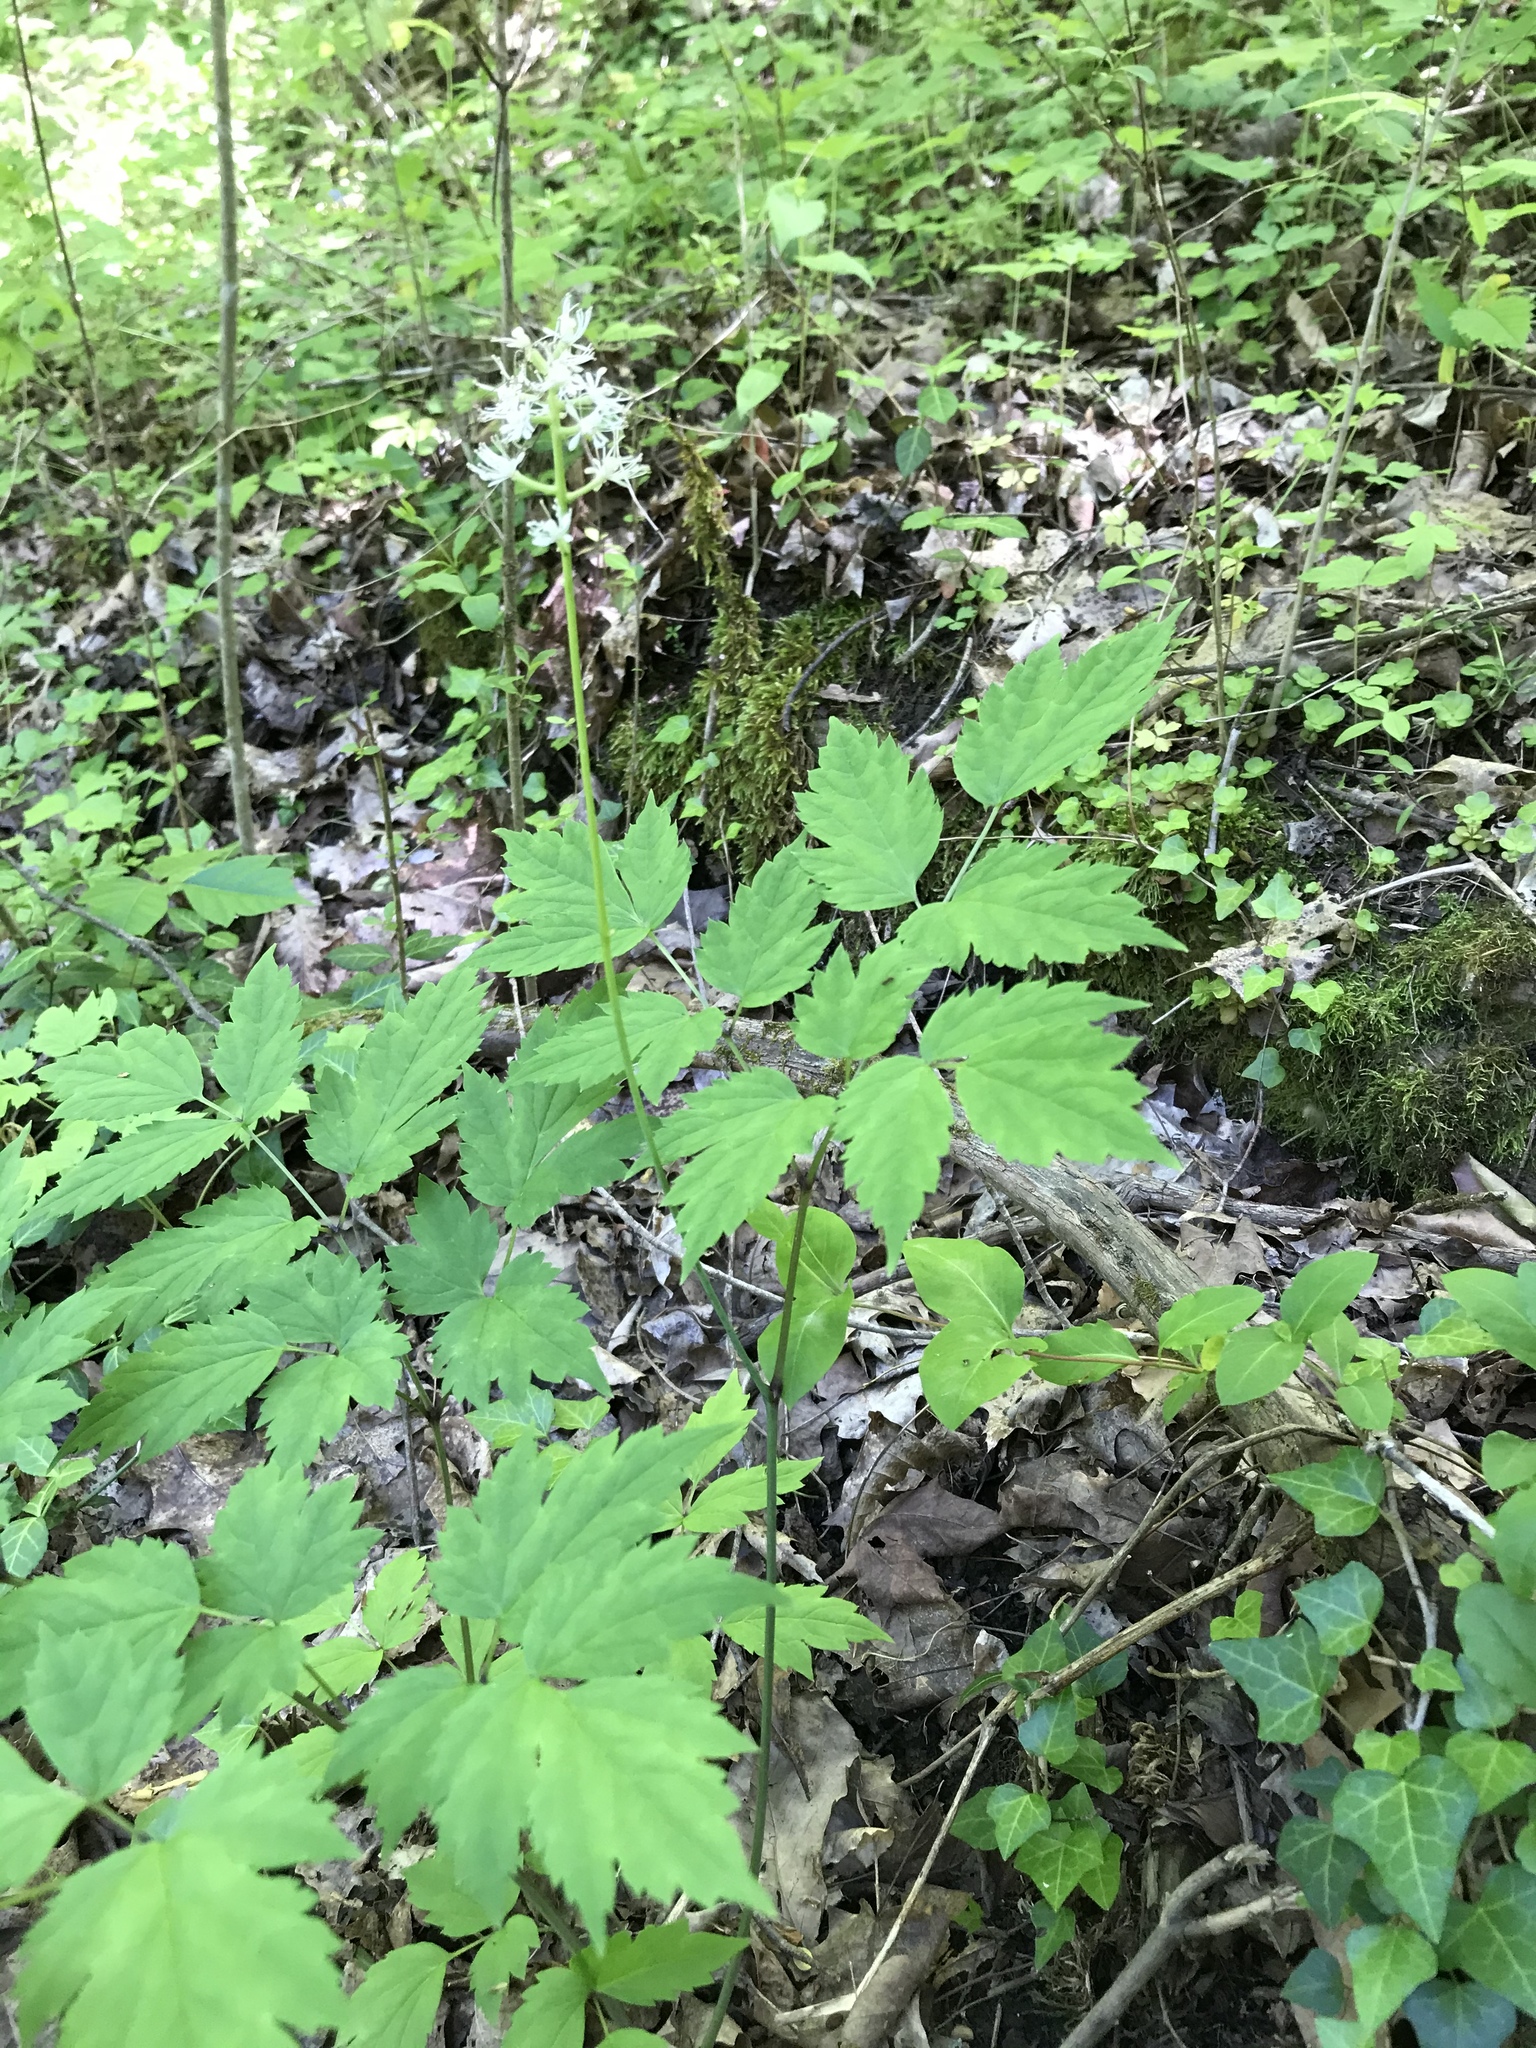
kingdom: Plantae
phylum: Tracheophyta
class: Magnoliopsida
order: Ranunculales
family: Ranunculaceae
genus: Actaea
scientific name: Actaea pachypoda
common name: Doll's-eyes
